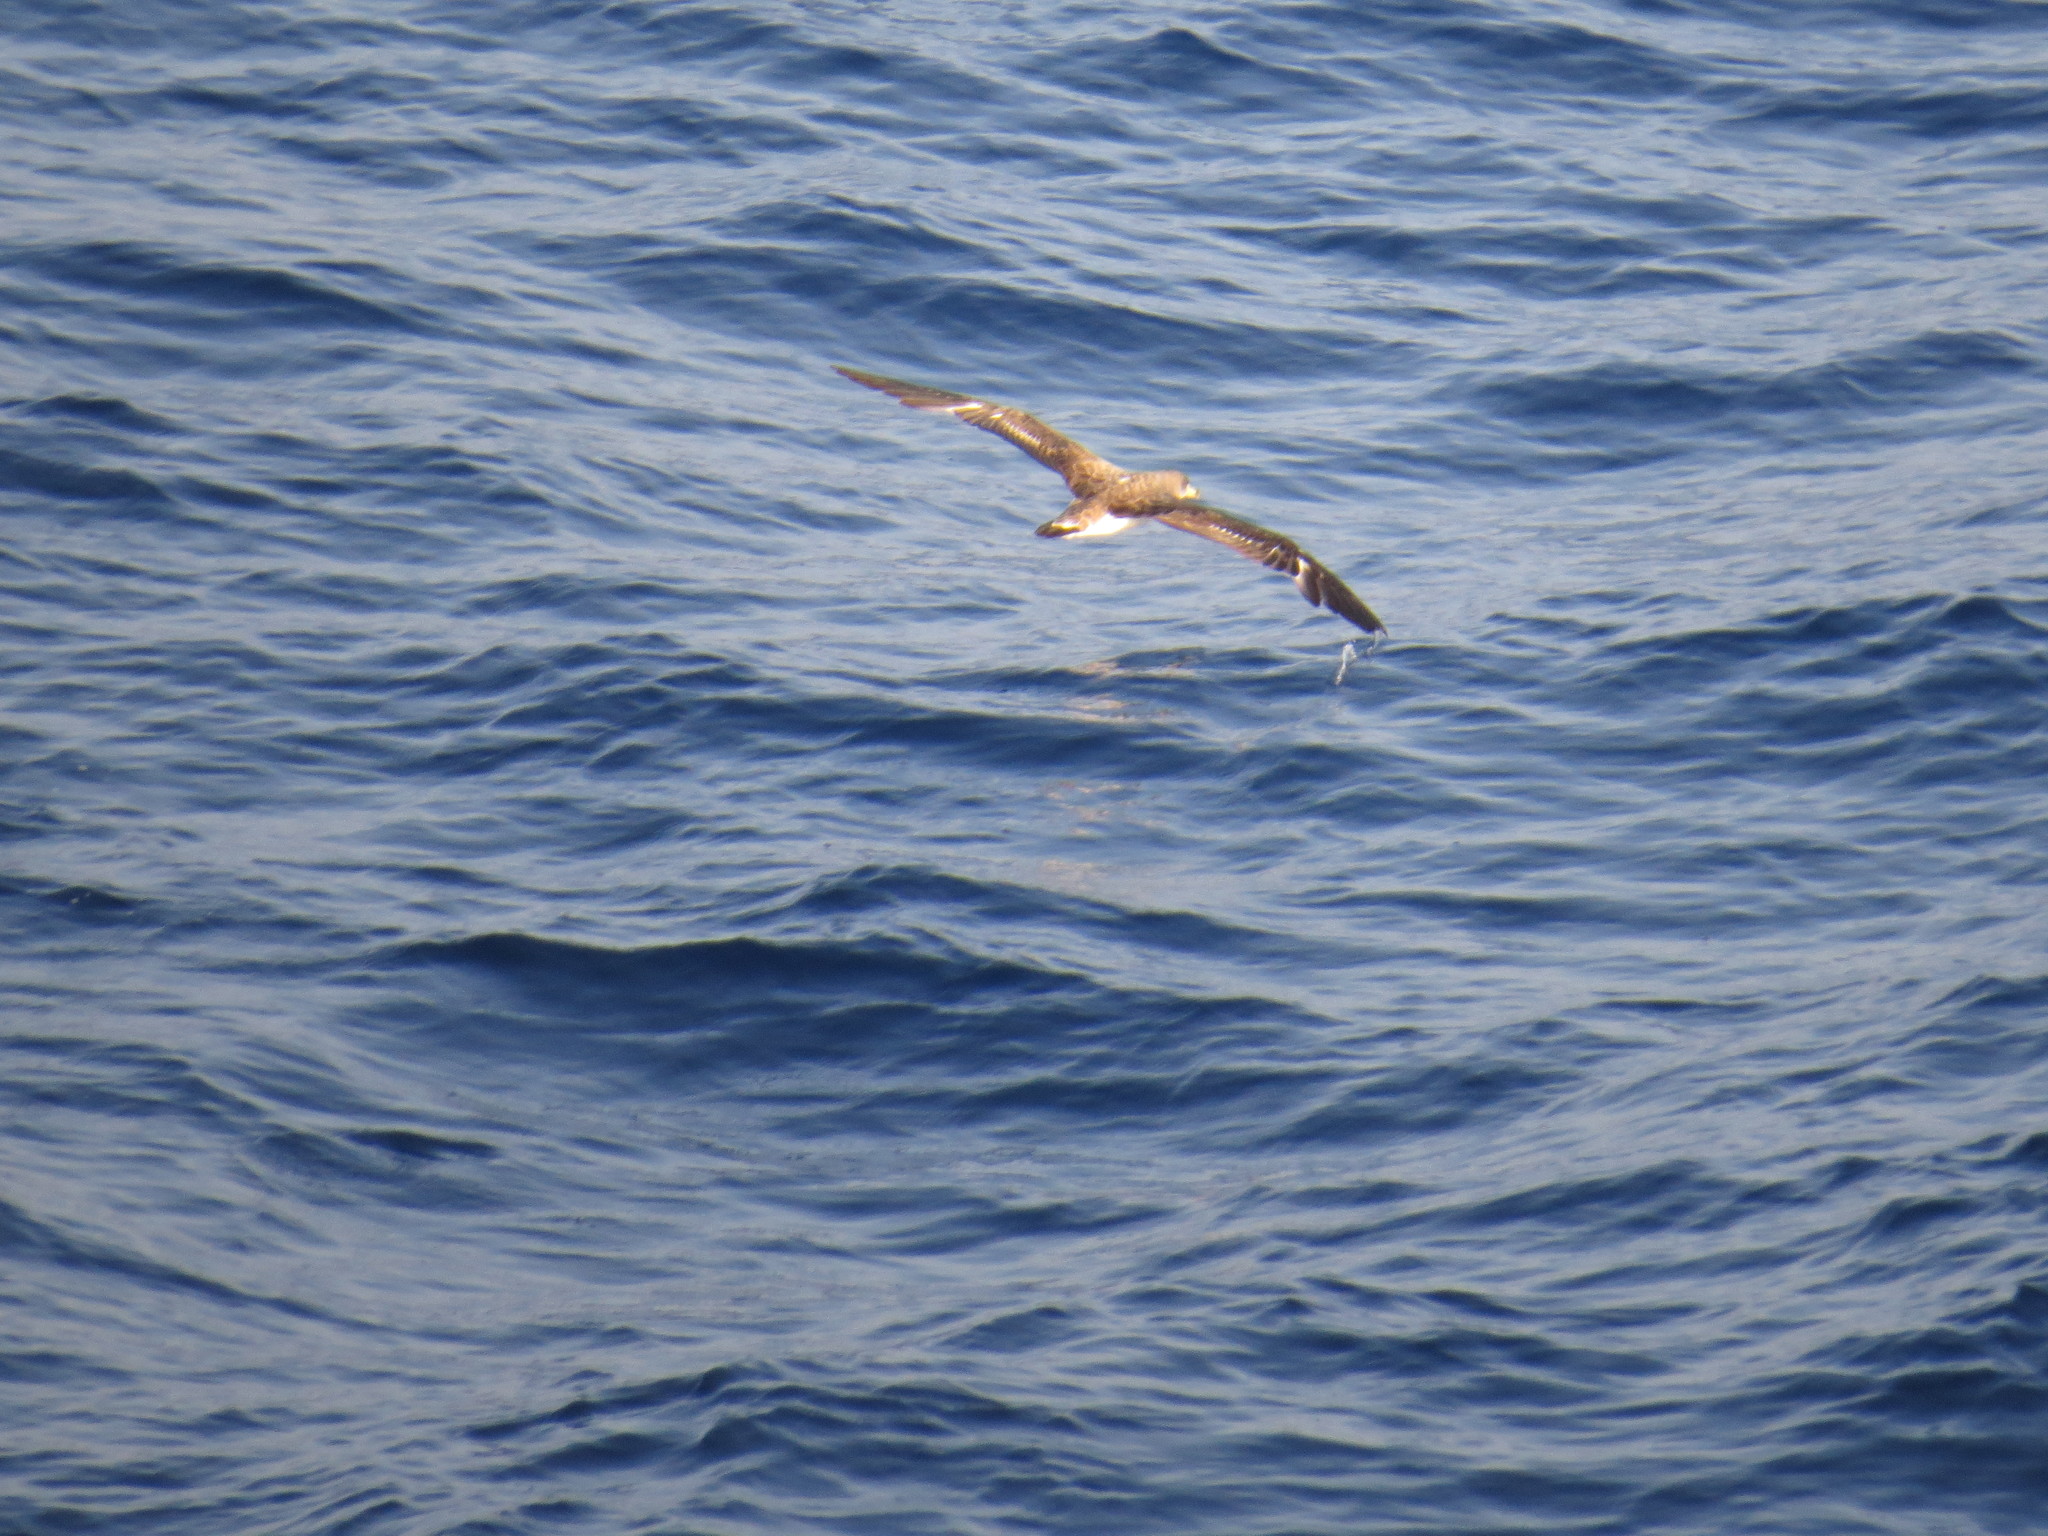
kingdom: Animalia
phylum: Chordata
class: Aves
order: Procellariiformes
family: Procellariidae
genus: Calonectris
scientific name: Calonectris diomedea
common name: Cory's shearwater
